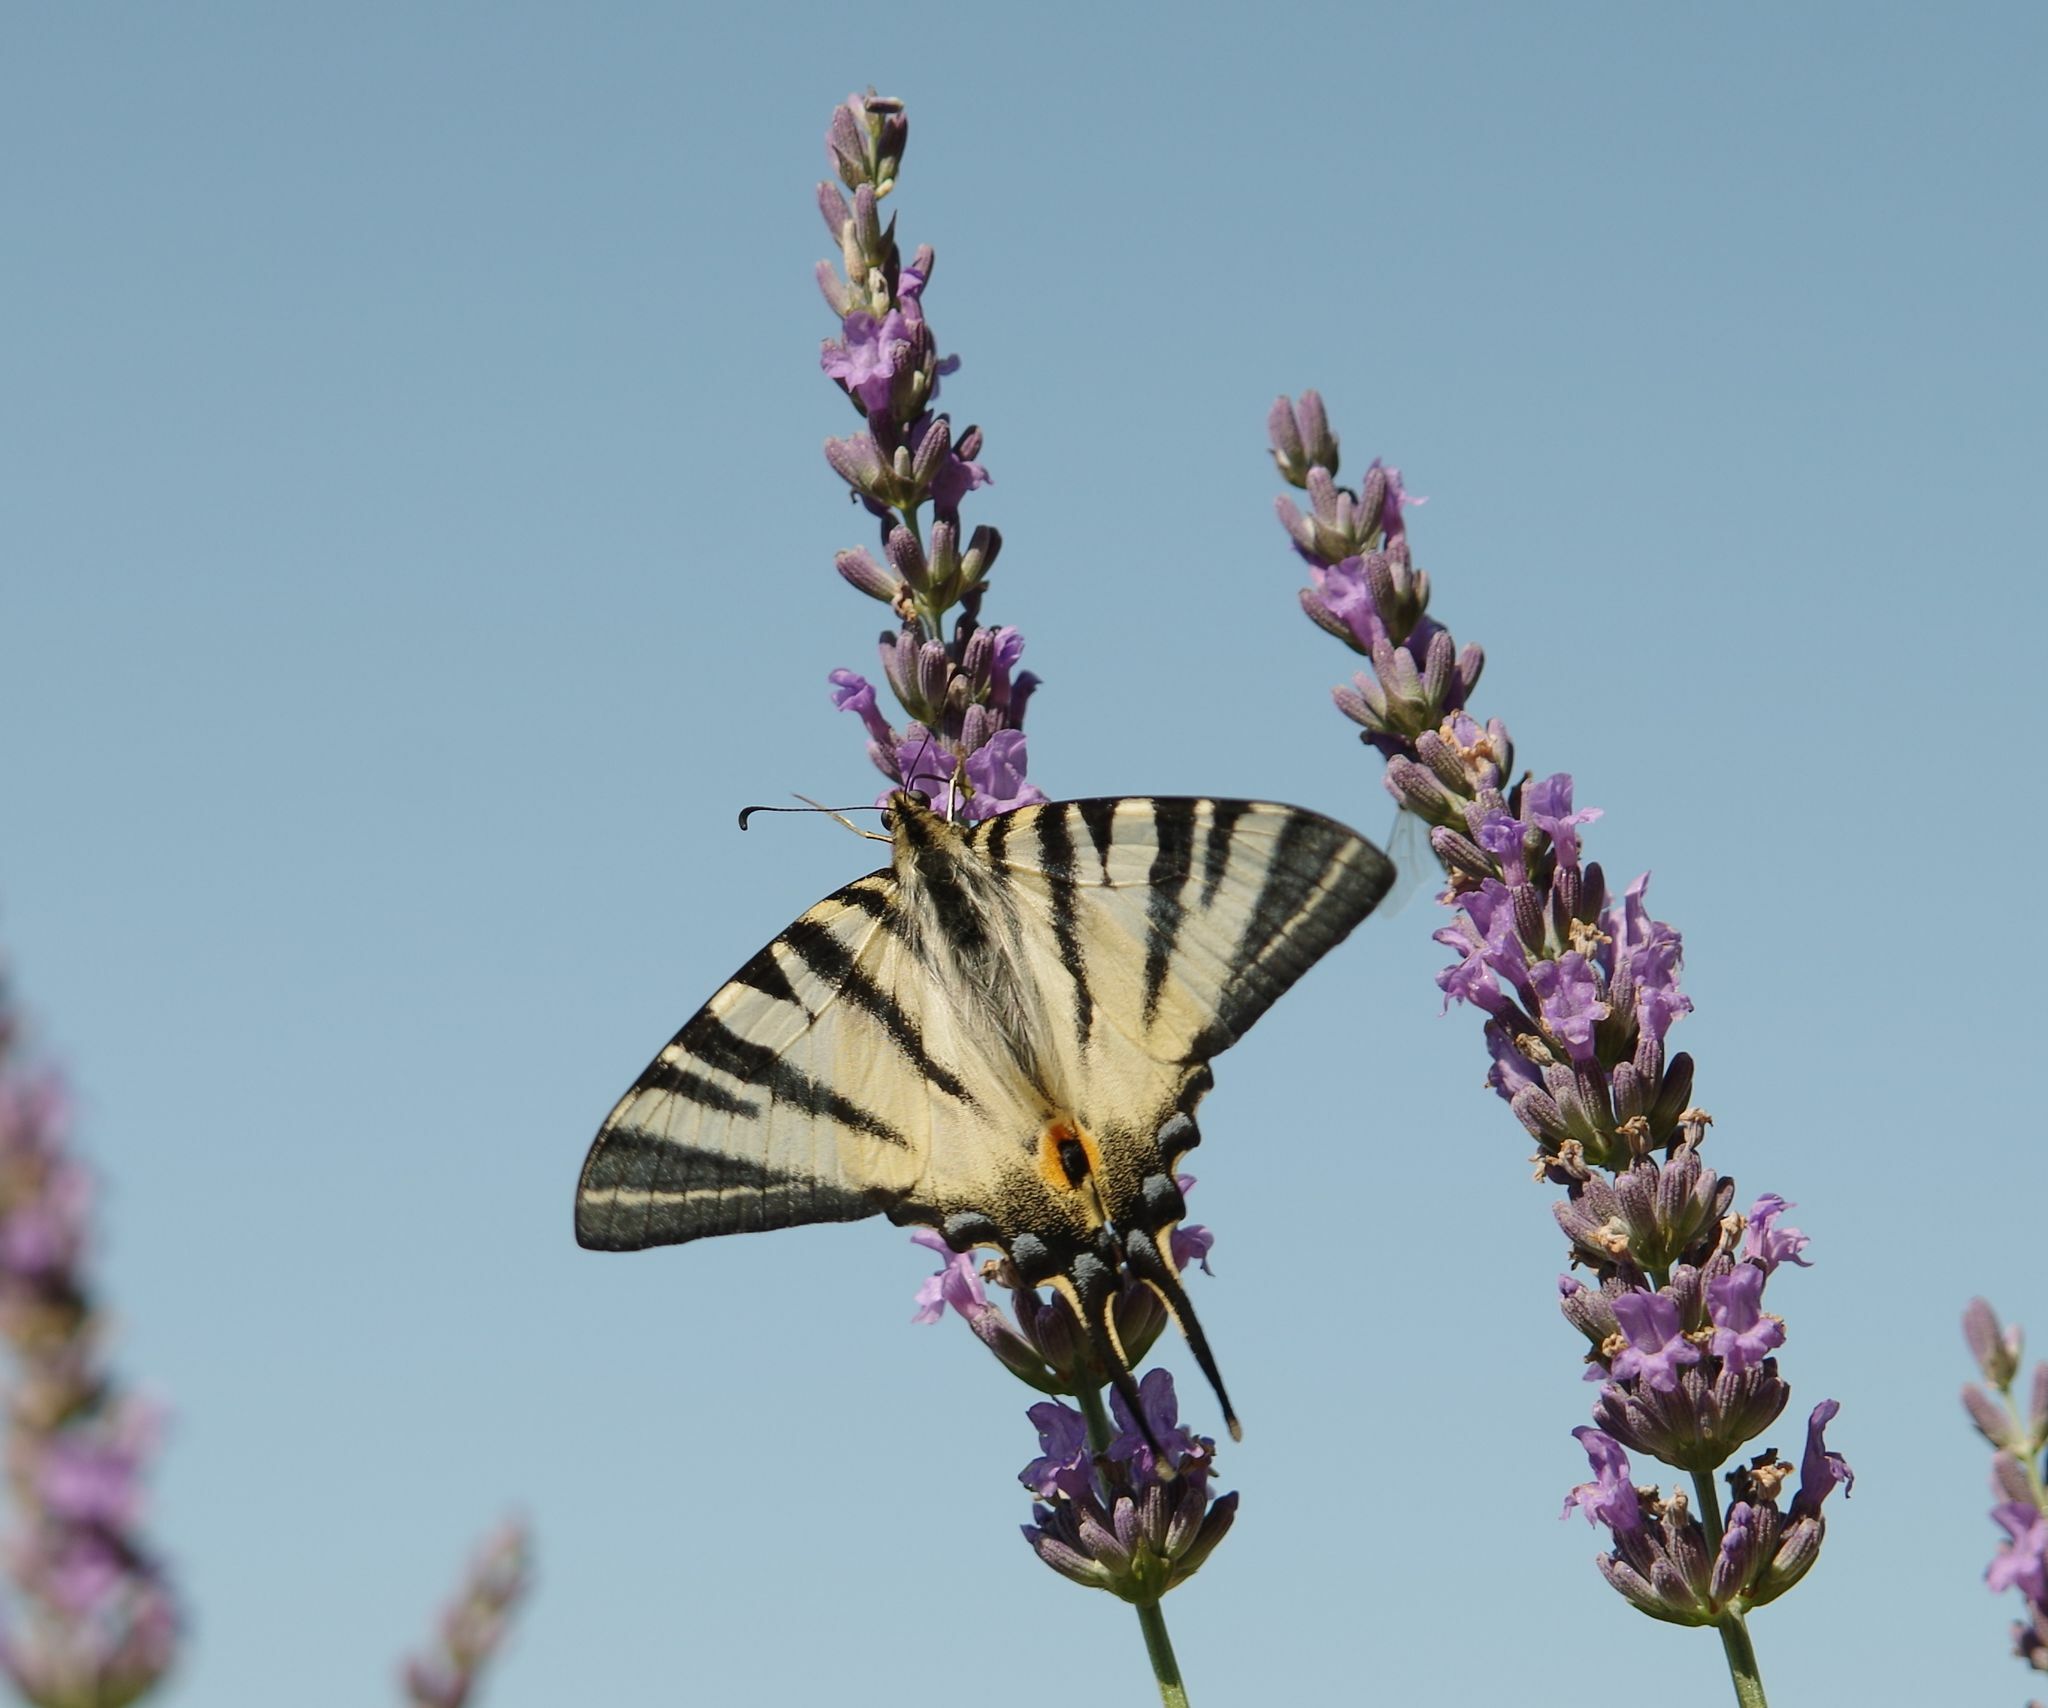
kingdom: Animalia
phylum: Arthropoda
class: Insecta
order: Lepidoptera
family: Papilionidae
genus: Iphiclides
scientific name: Iphiclides podalirius
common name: Scarce swallowtail
